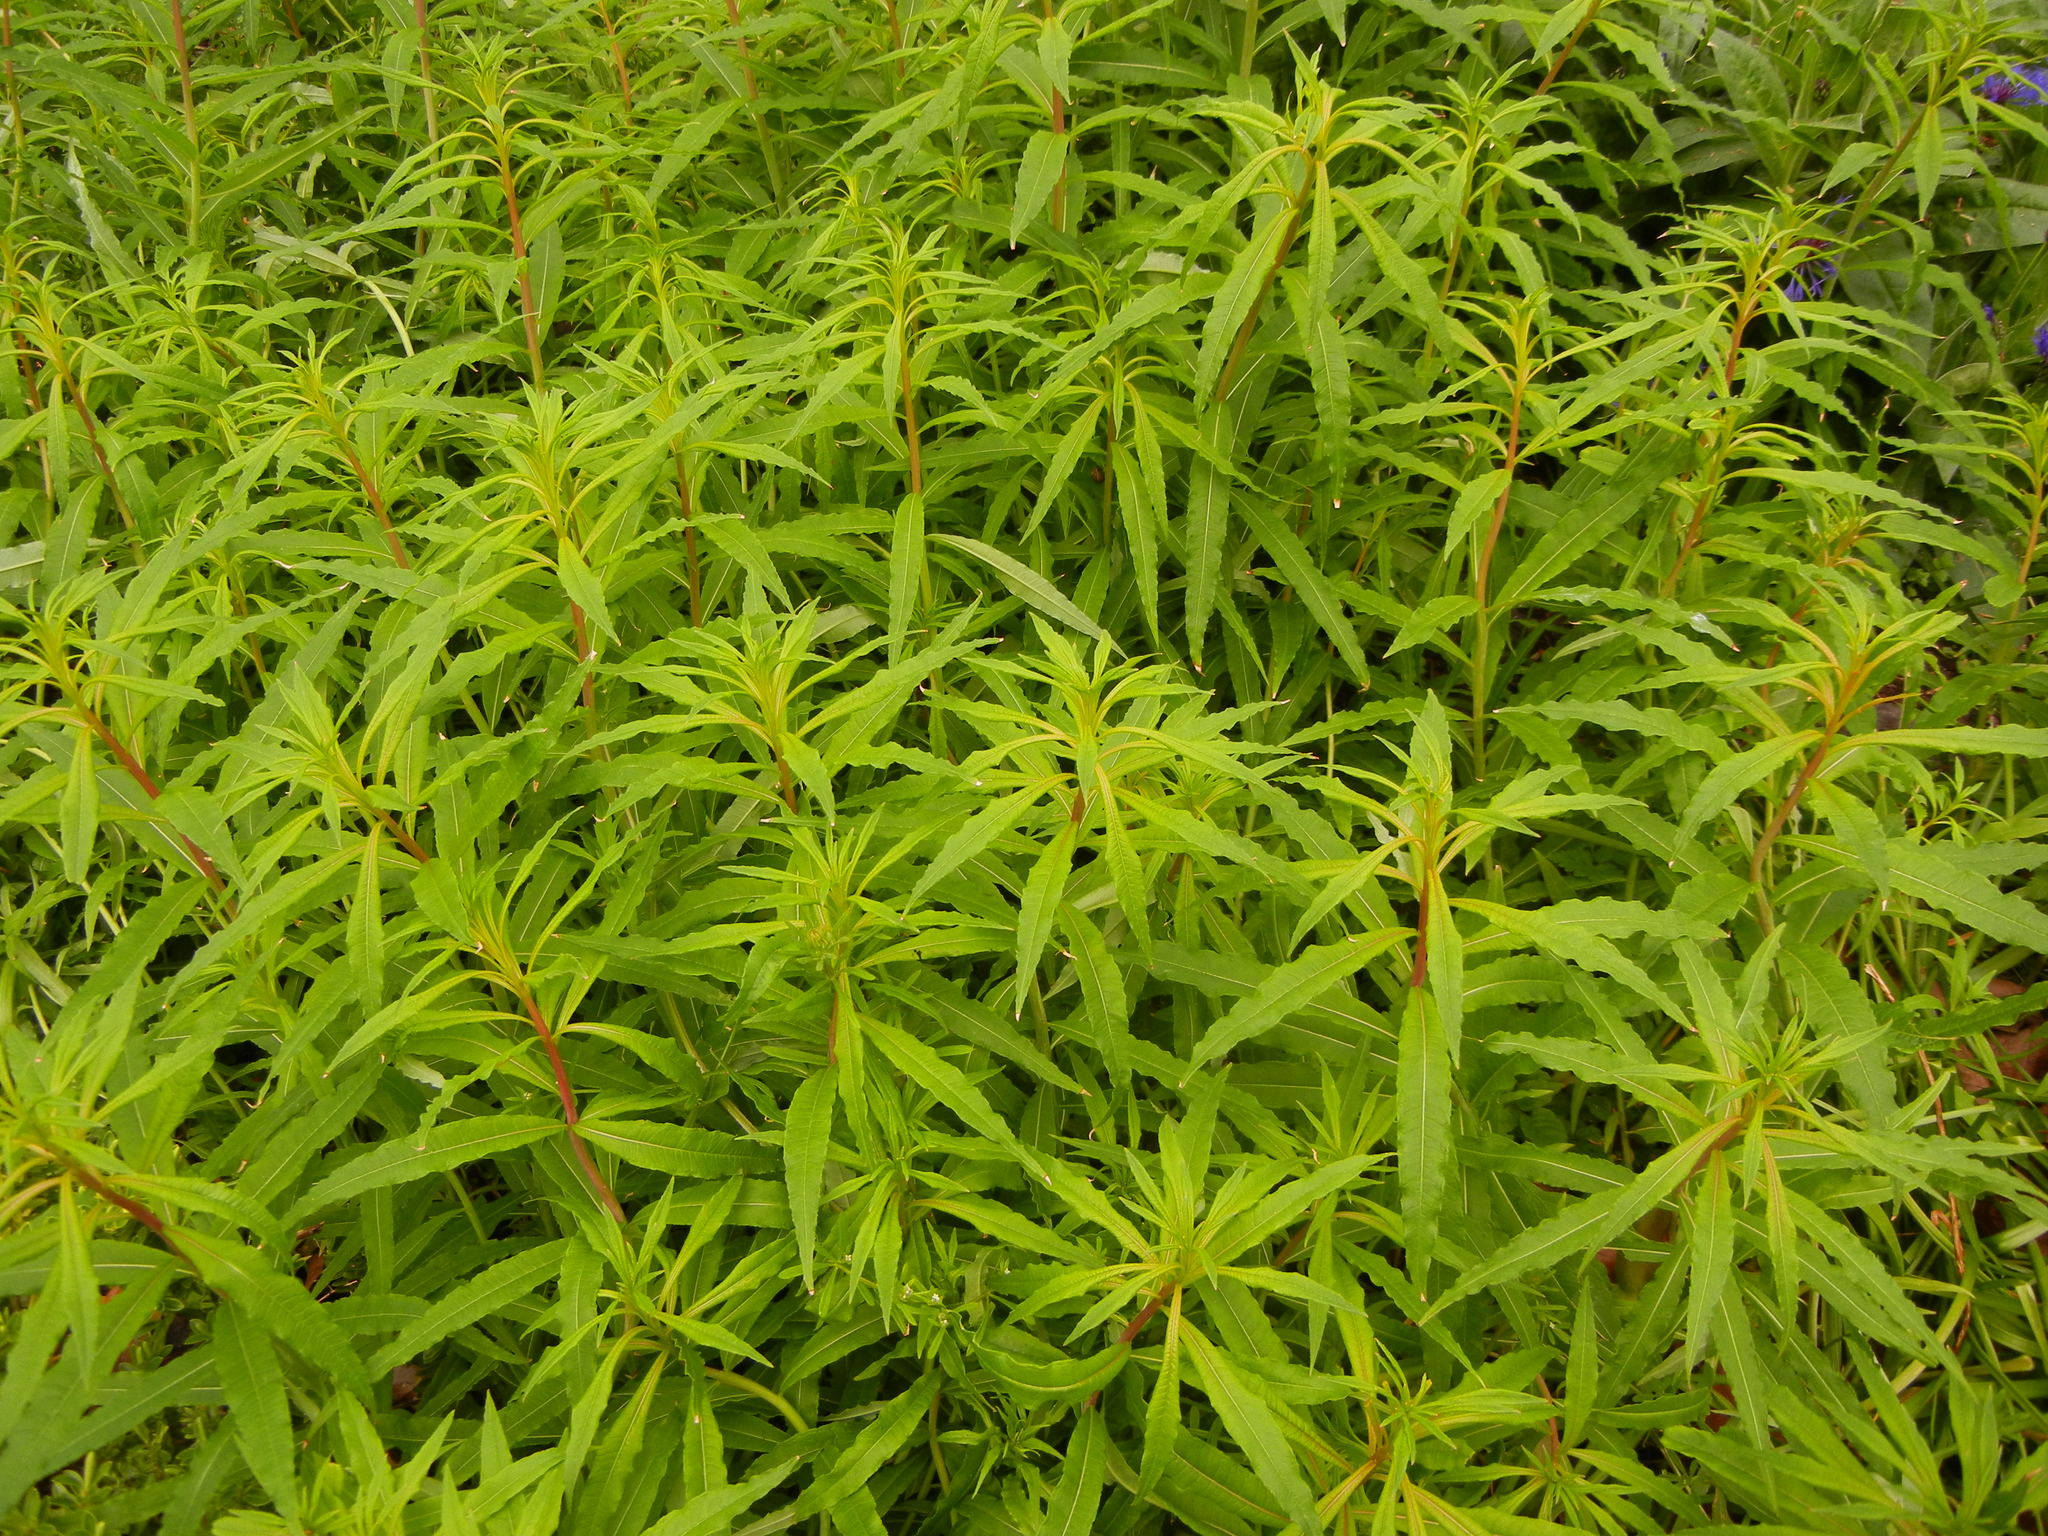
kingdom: Plantae
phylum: Tracheophyta
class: Magnoliopsida
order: Myrtales
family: Onagraceae
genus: Chamaenerion
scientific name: Chamaenerion angustifolium
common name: Fireweed
